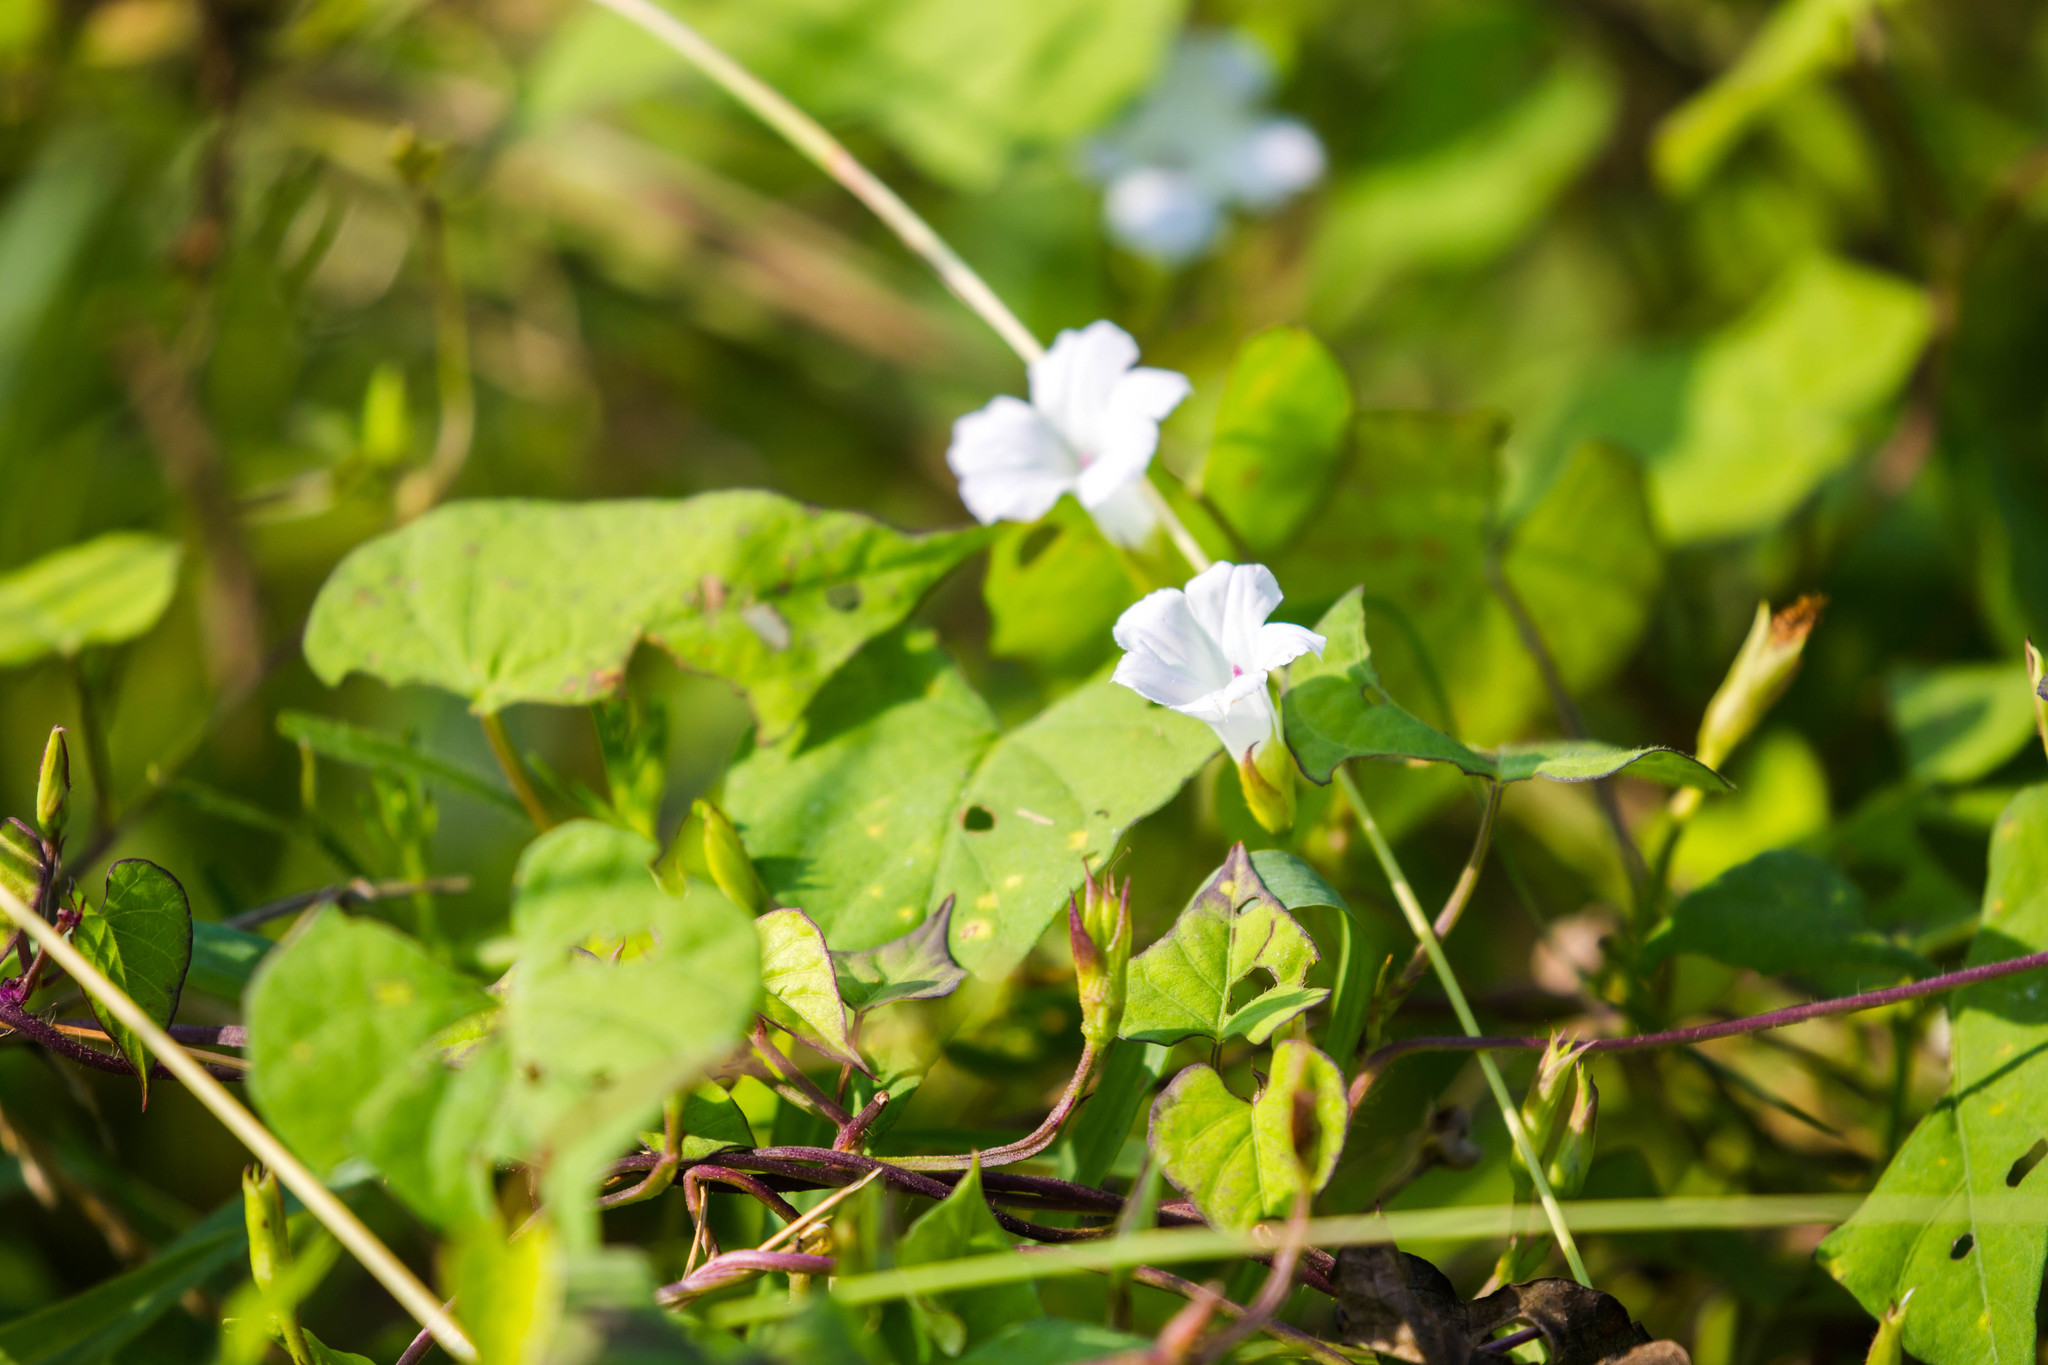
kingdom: Plantae
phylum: Tracheophyta
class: Magnoliopsida
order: Solanales
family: Convolvulaceae
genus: Ipomoea
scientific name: Ipomoea lacunosa
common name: White morning-glory
